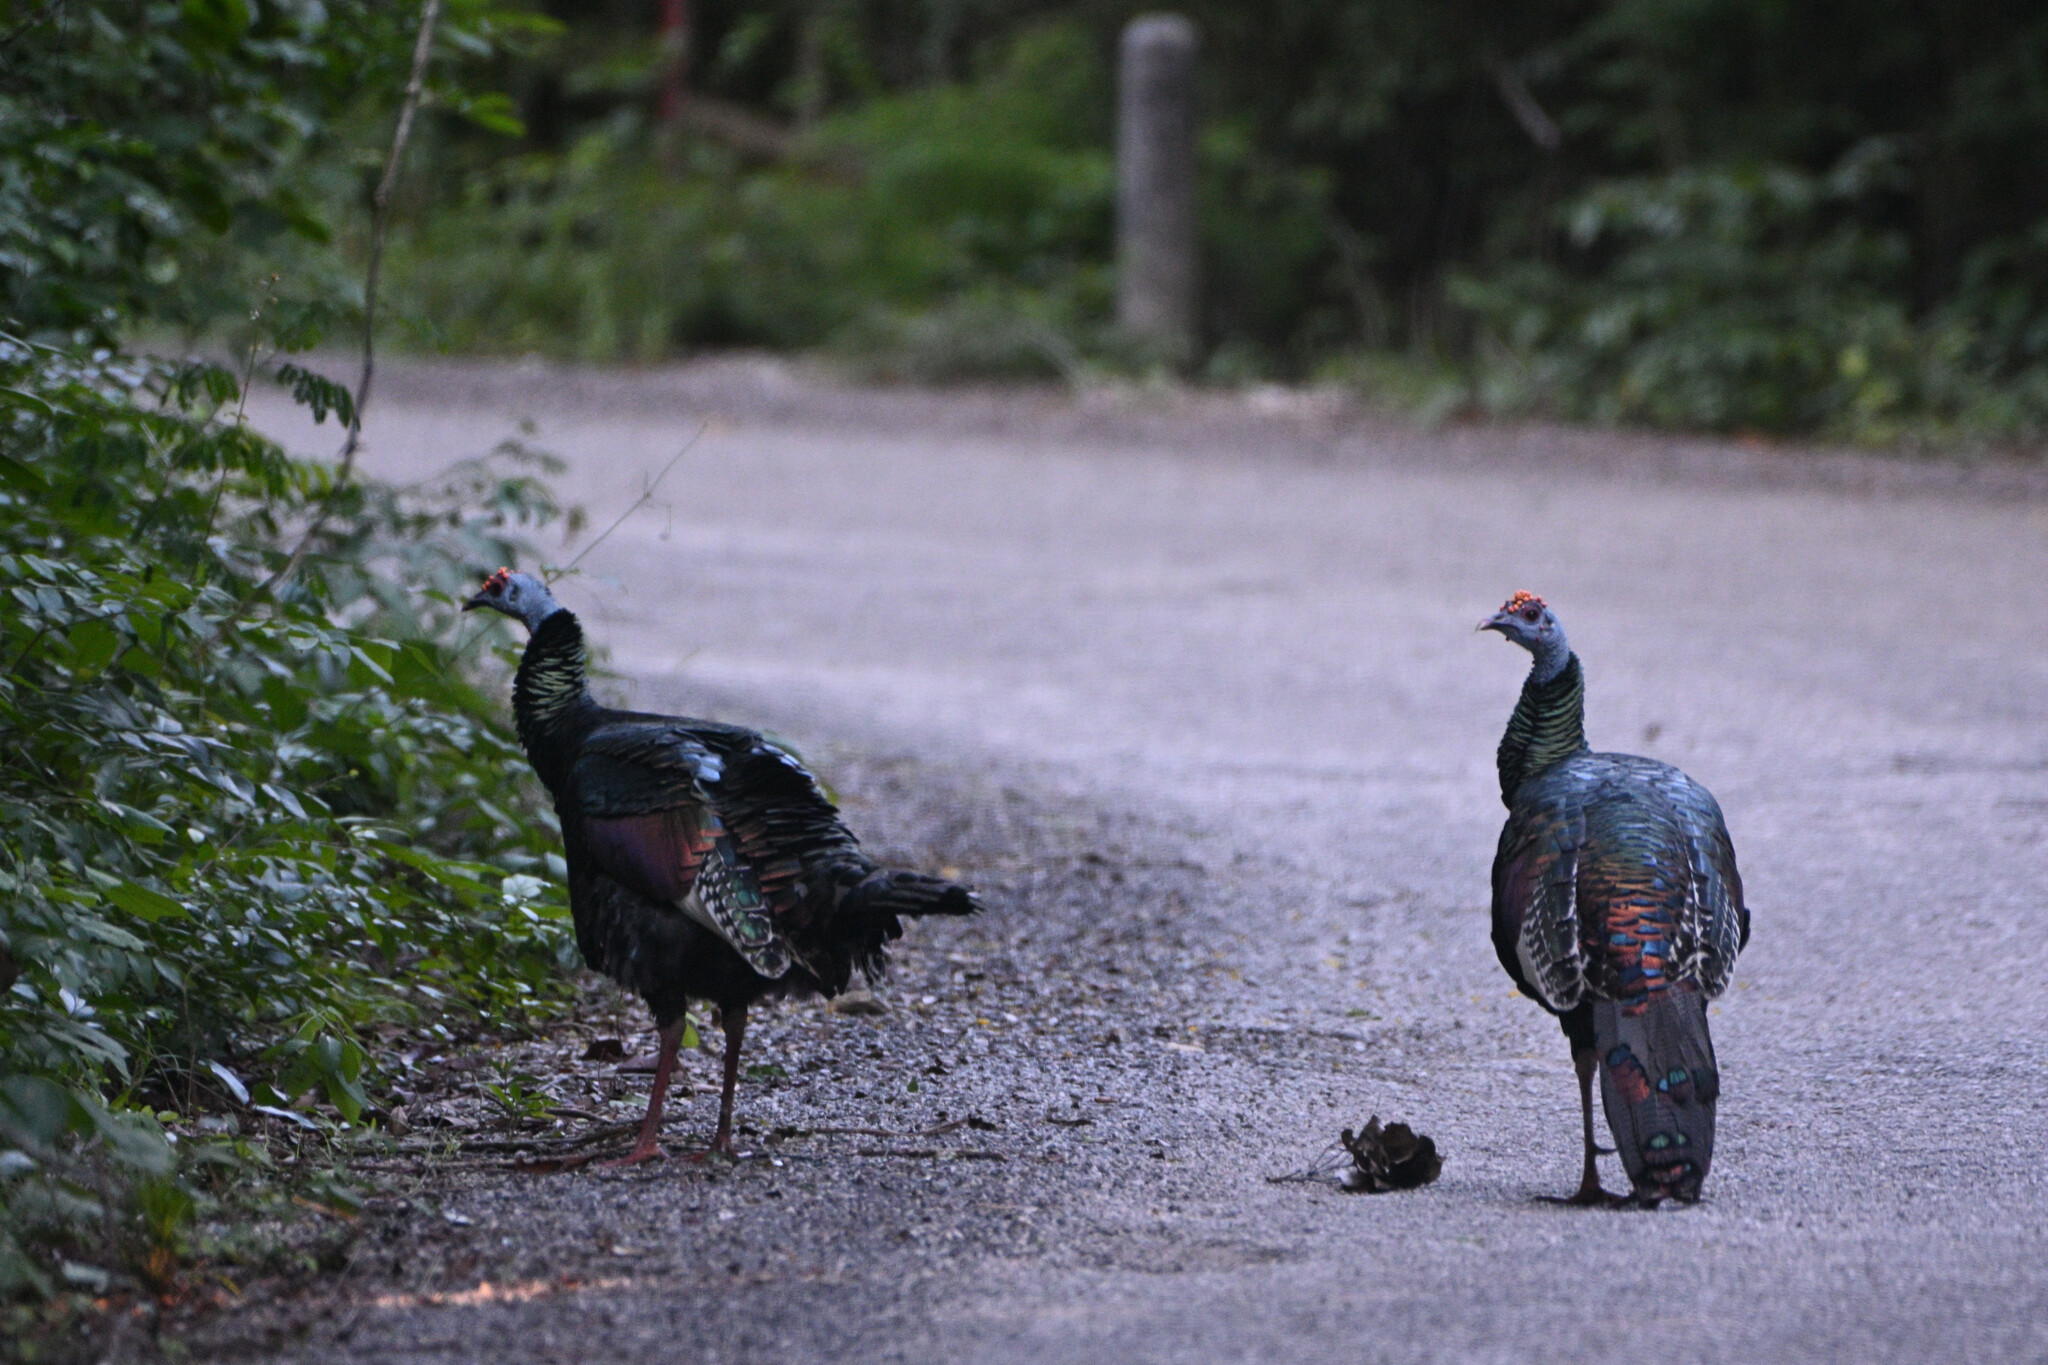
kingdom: Animalia
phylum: Chordata
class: Aves
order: Galliformes
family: Phasianidae
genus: Meleagris
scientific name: Meleagris ocellata
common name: Ocellated turkey
